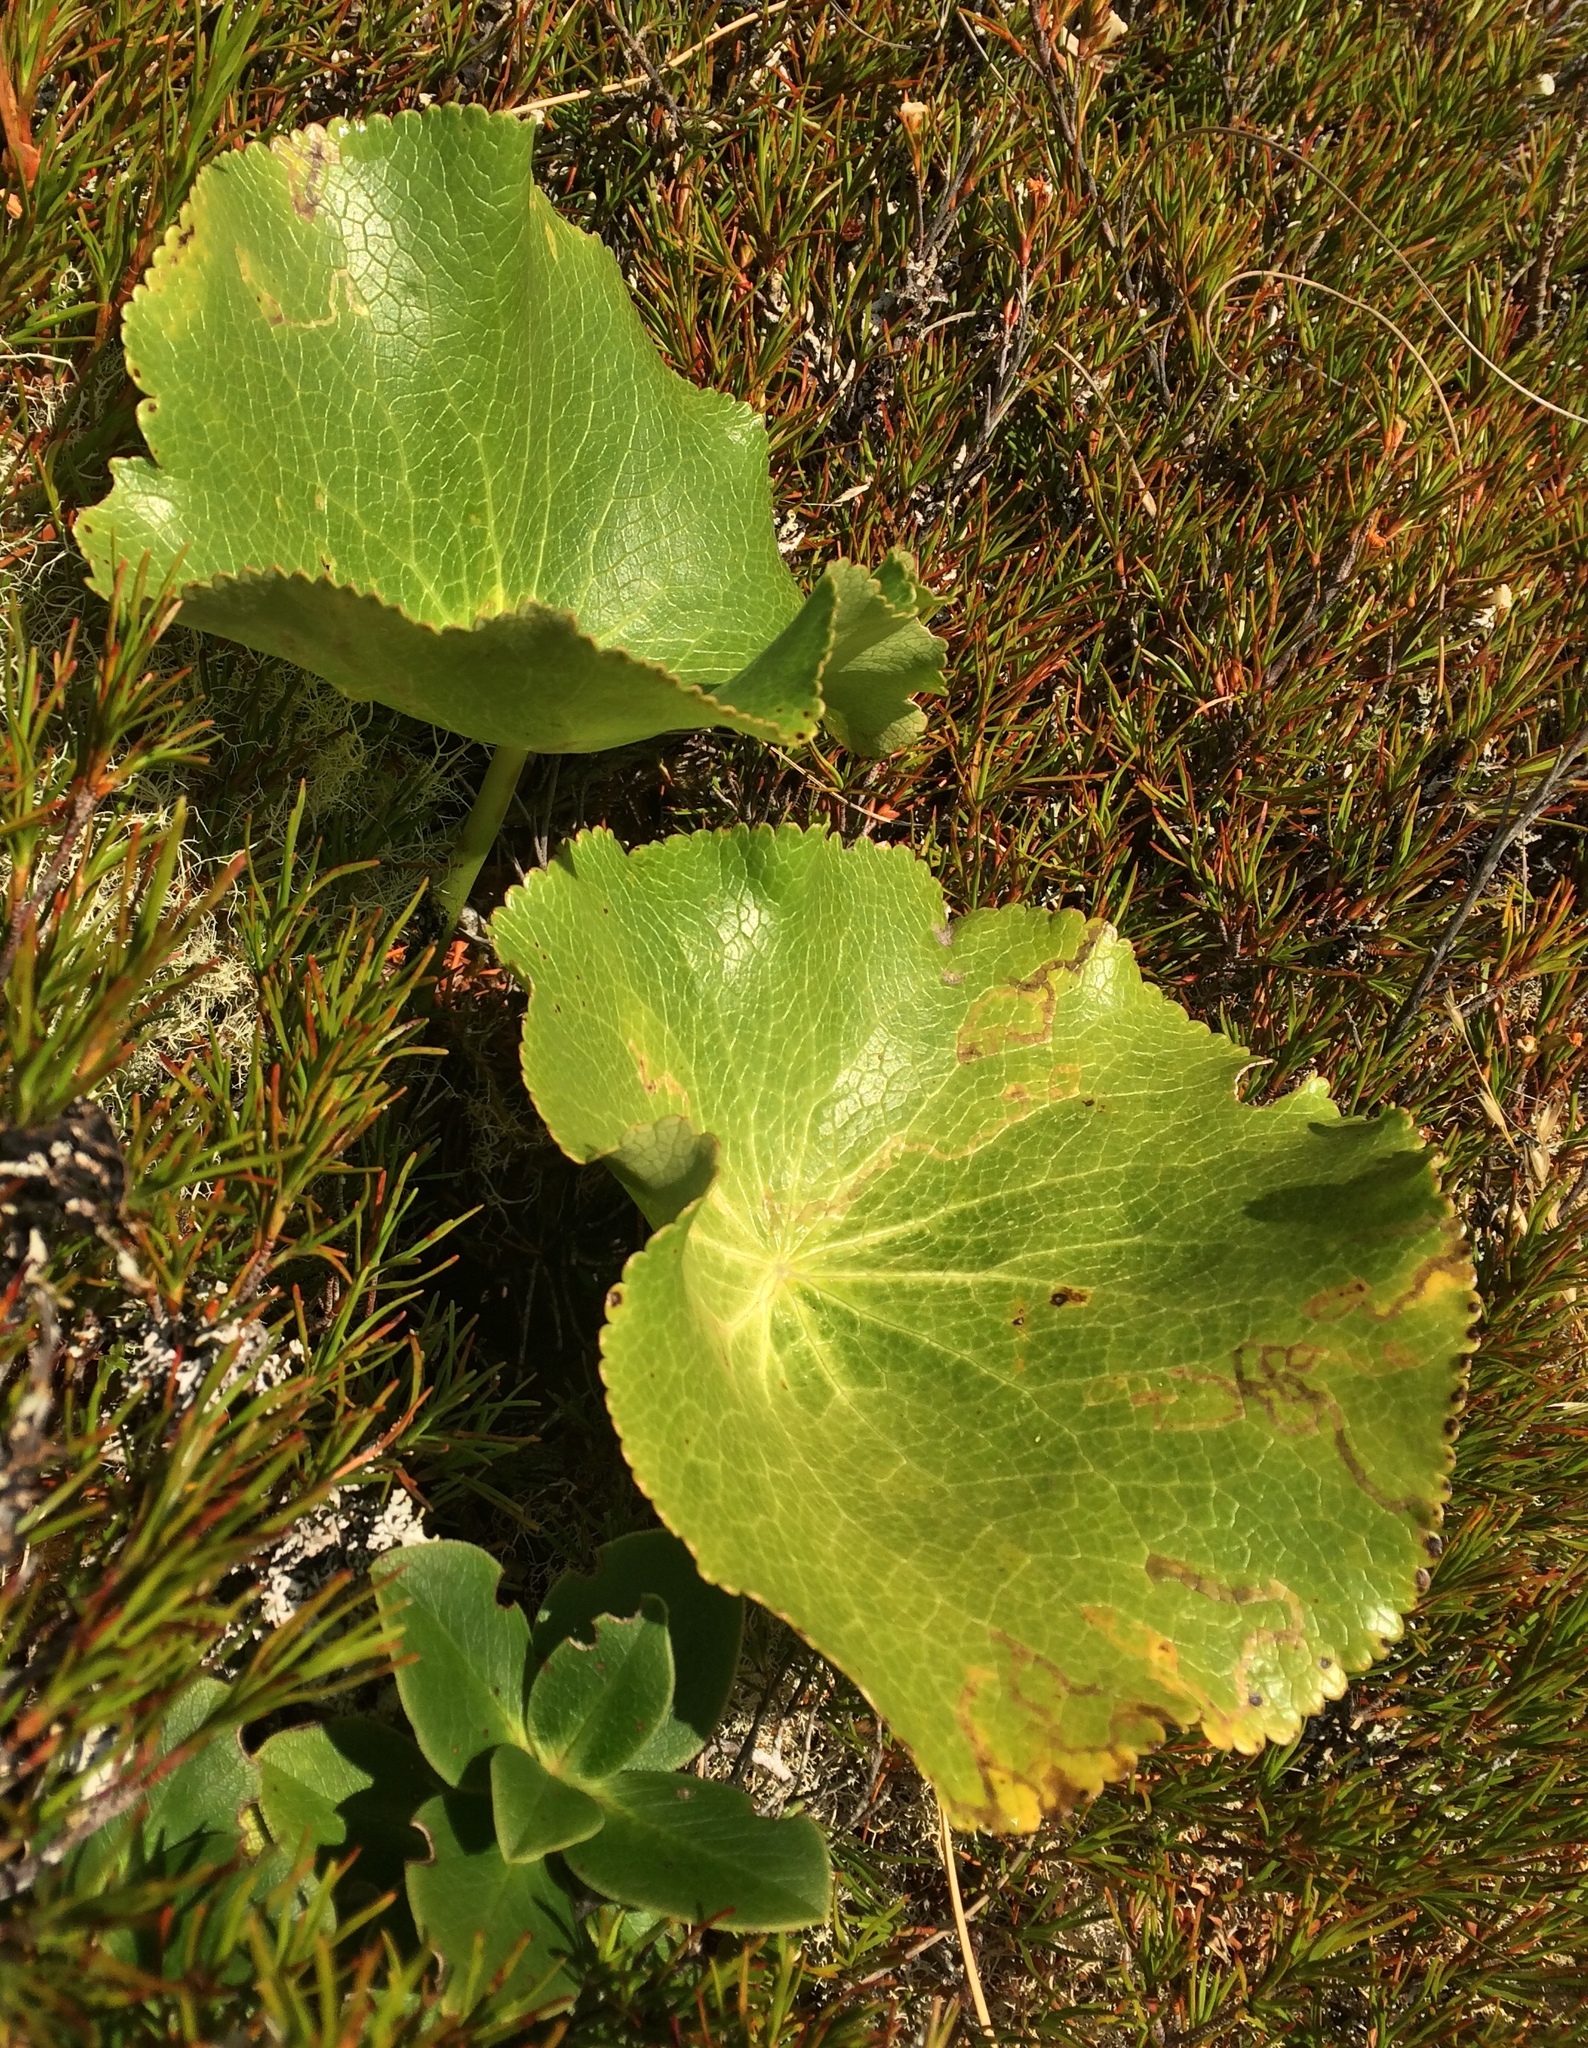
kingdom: Plantae
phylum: Tracheophyta
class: Magnoliopsida
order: Ranunculales
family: Ranunculaceae
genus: Ranunculus
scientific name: Ranunculus lyallii
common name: Mountain-lily
